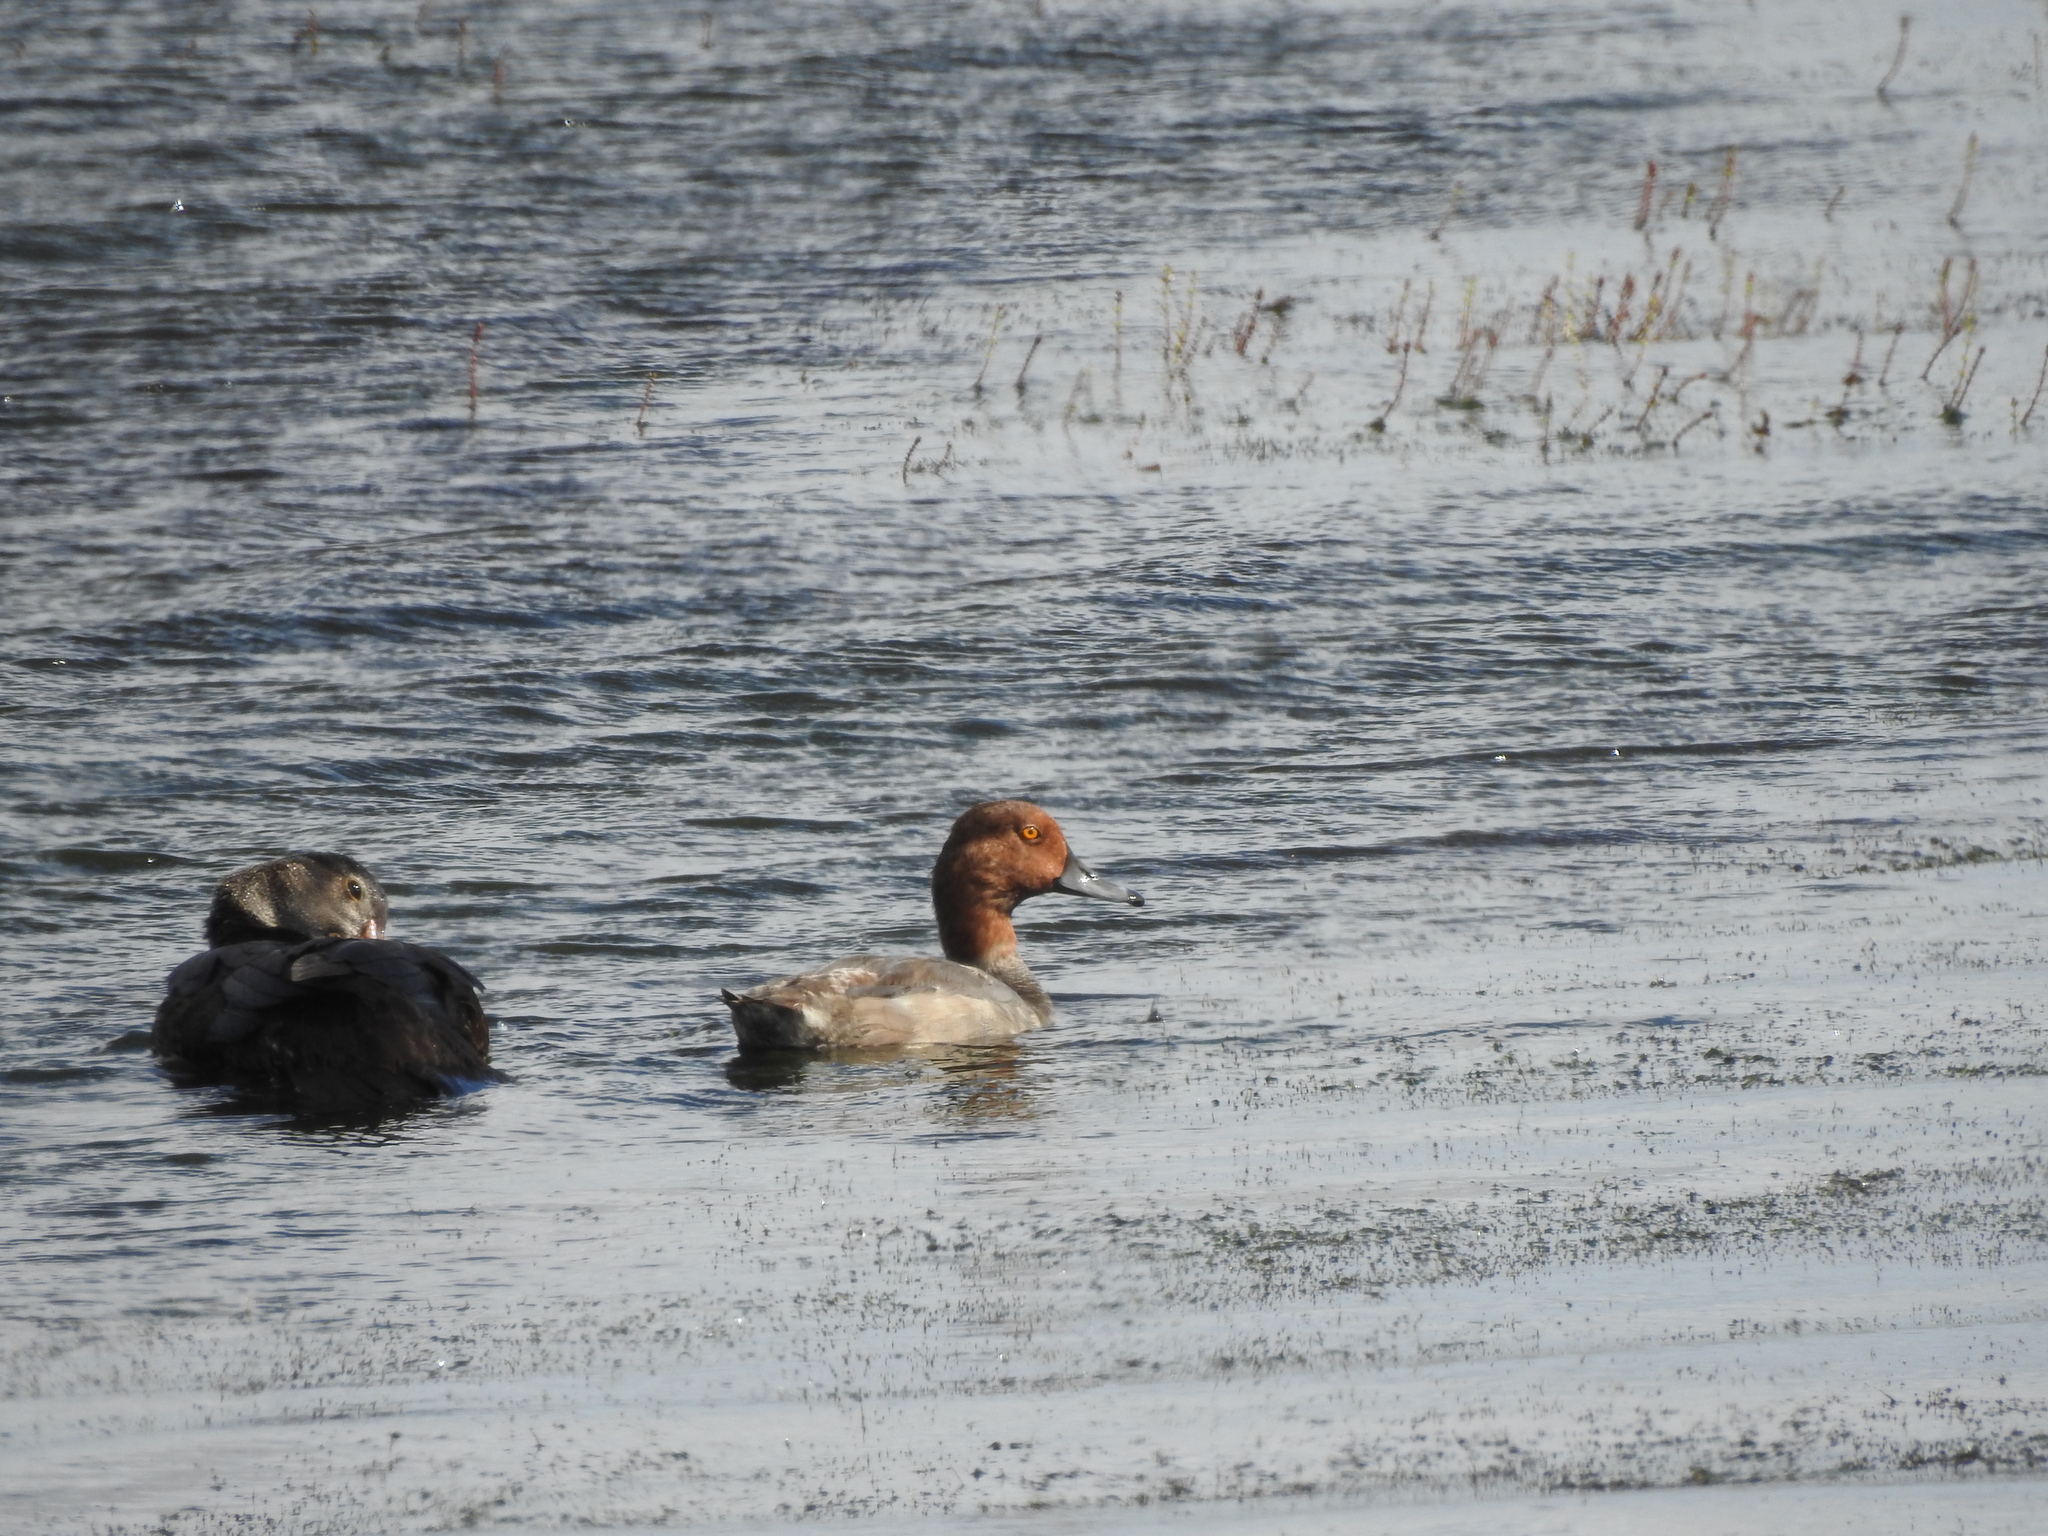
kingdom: Animalia
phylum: Chordata
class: Aves
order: Anseriformes
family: Anatidae
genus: Aythya
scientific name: Aythya americana
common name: Redhead
